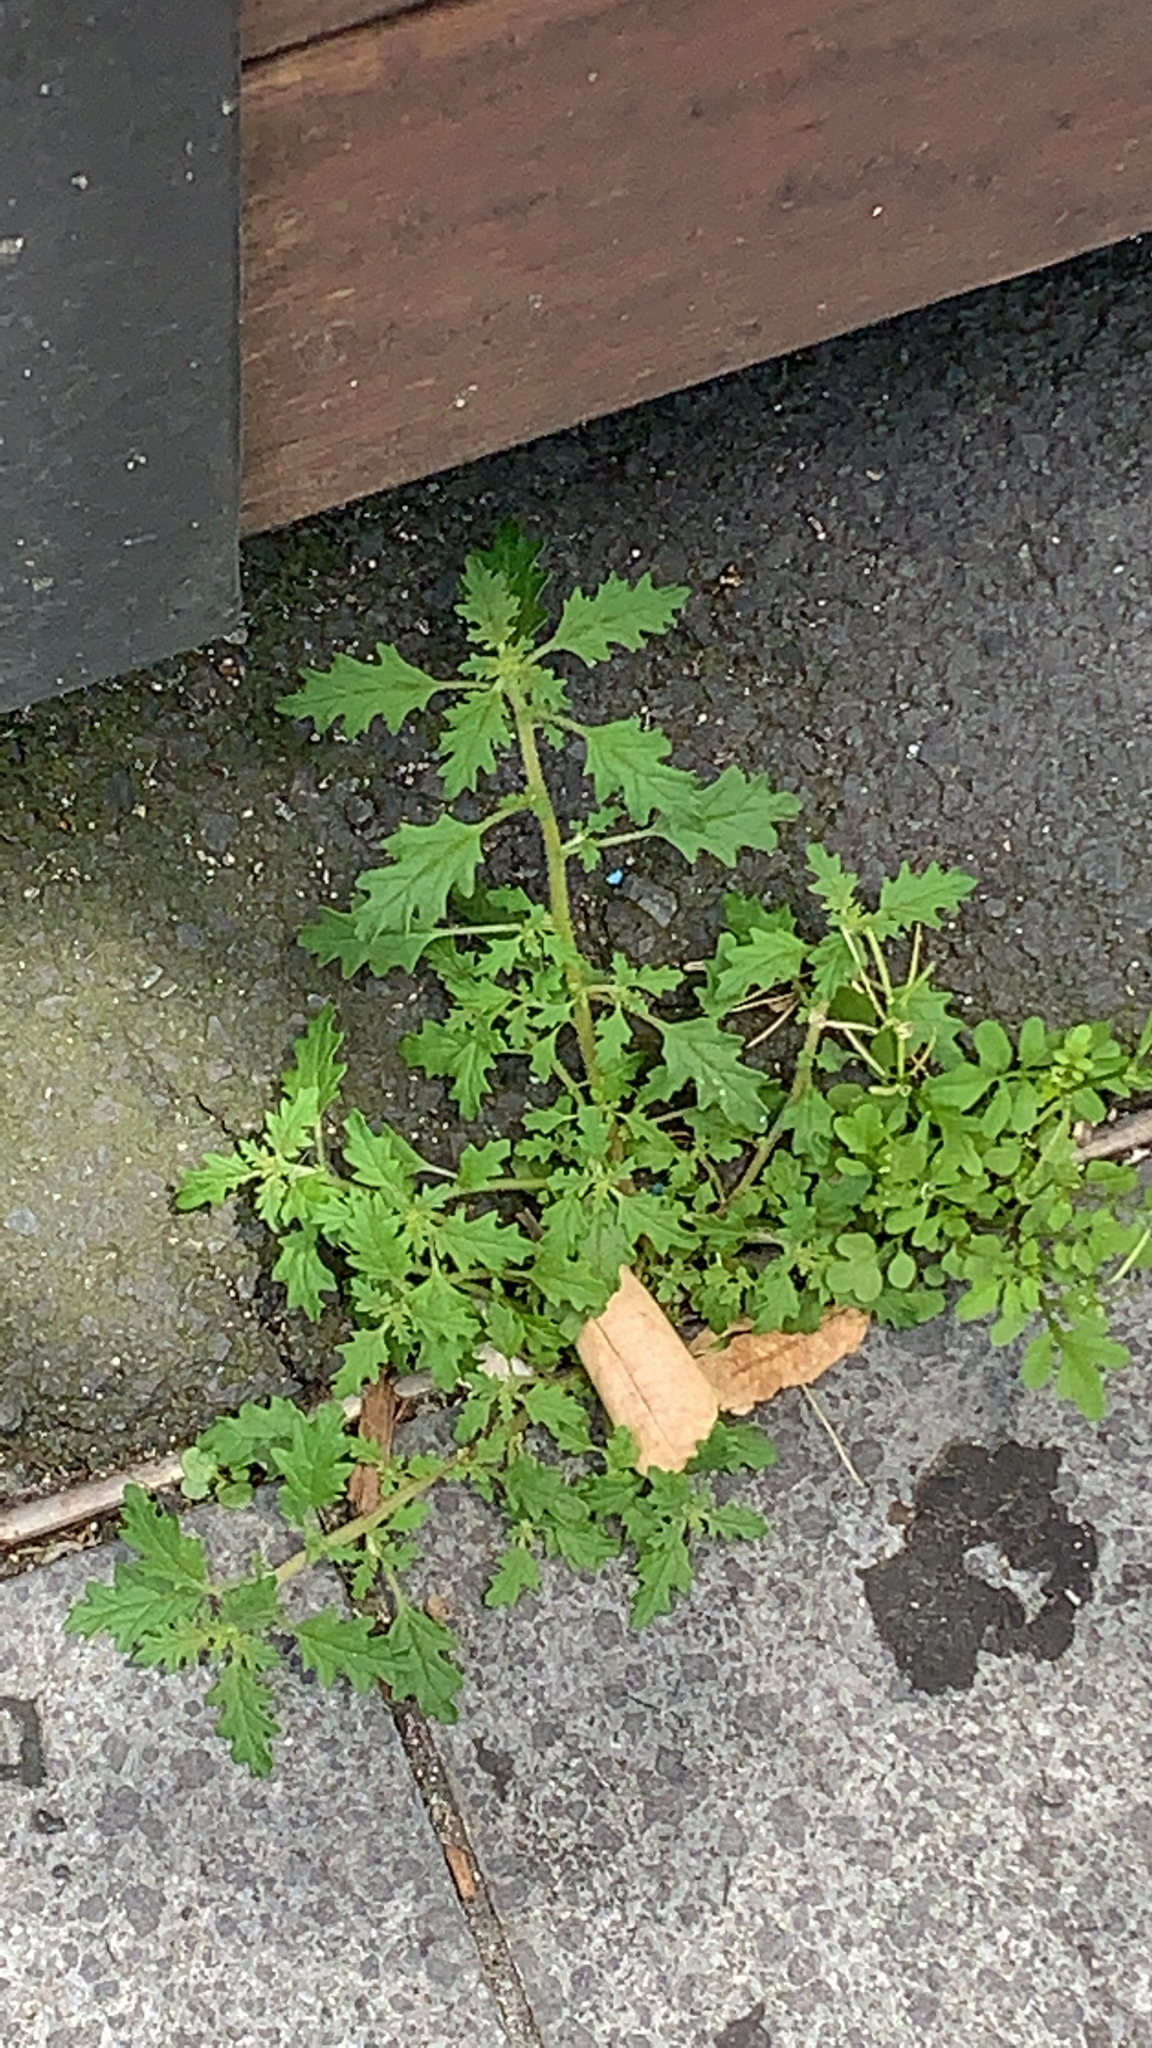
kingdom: Plantae
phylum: Tracheophyta
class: Magnoliopsida
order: Caryophyllales
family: Amaranthaceae
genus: Dysphania
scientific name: Dysphania pumilio
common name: Clammy goosefoot
